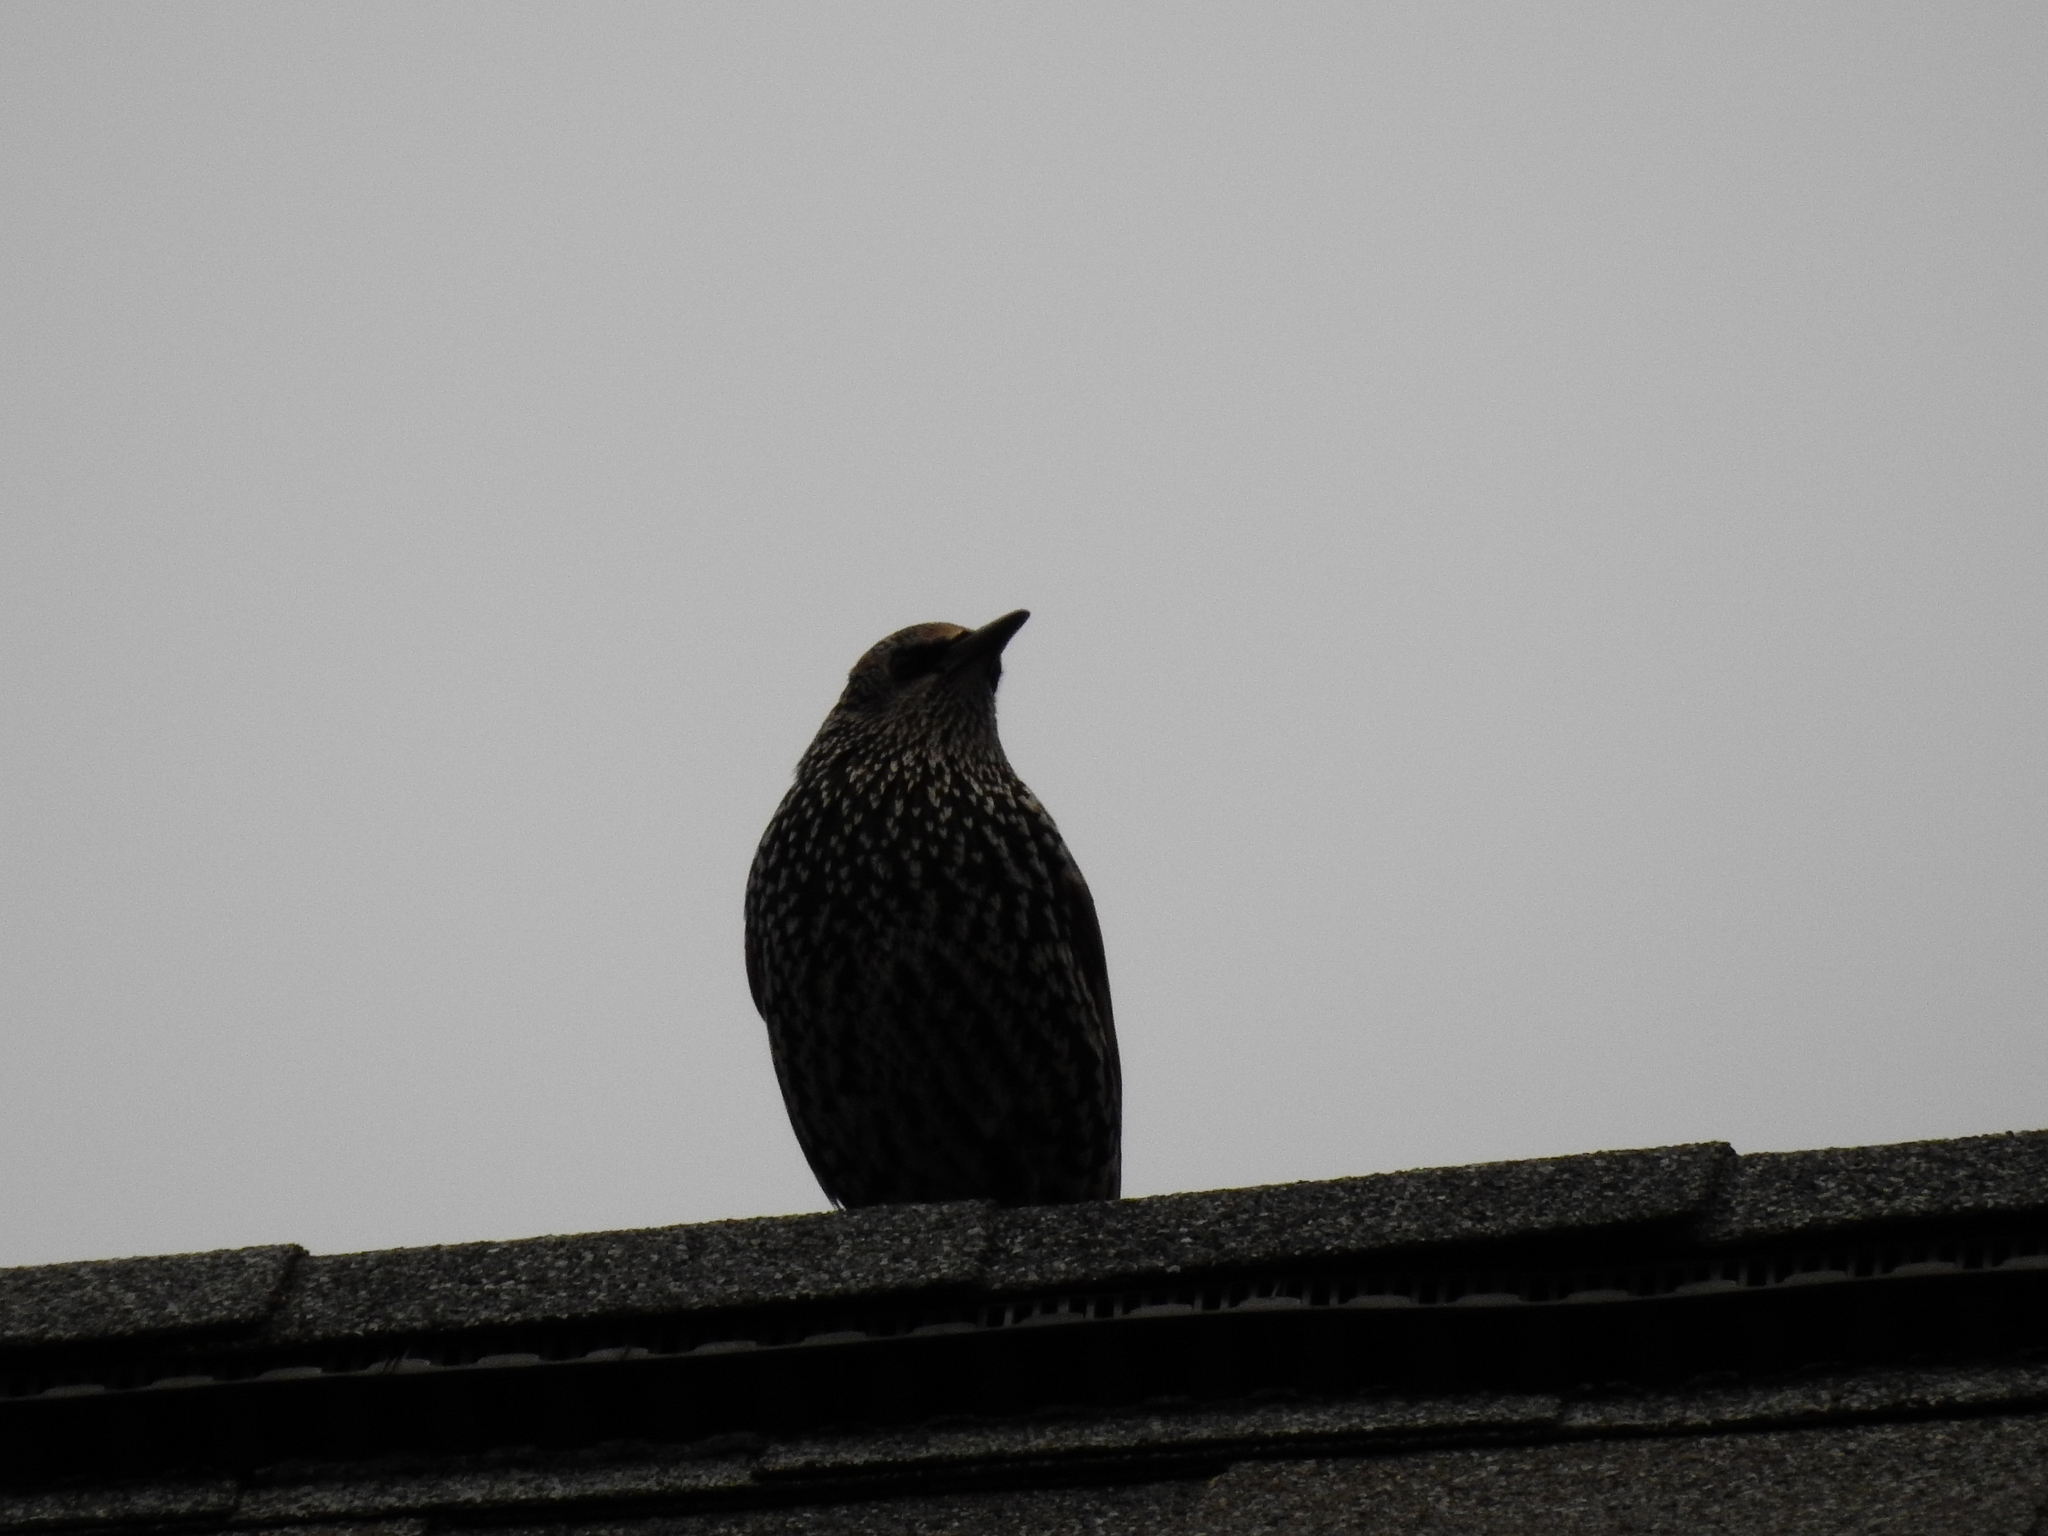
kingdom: Animalia
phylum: Chordata
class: Aves
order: Passeriformes
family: Sturnidae
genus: Sturnus
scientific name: Sturnus vulgaris
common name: Common starling
